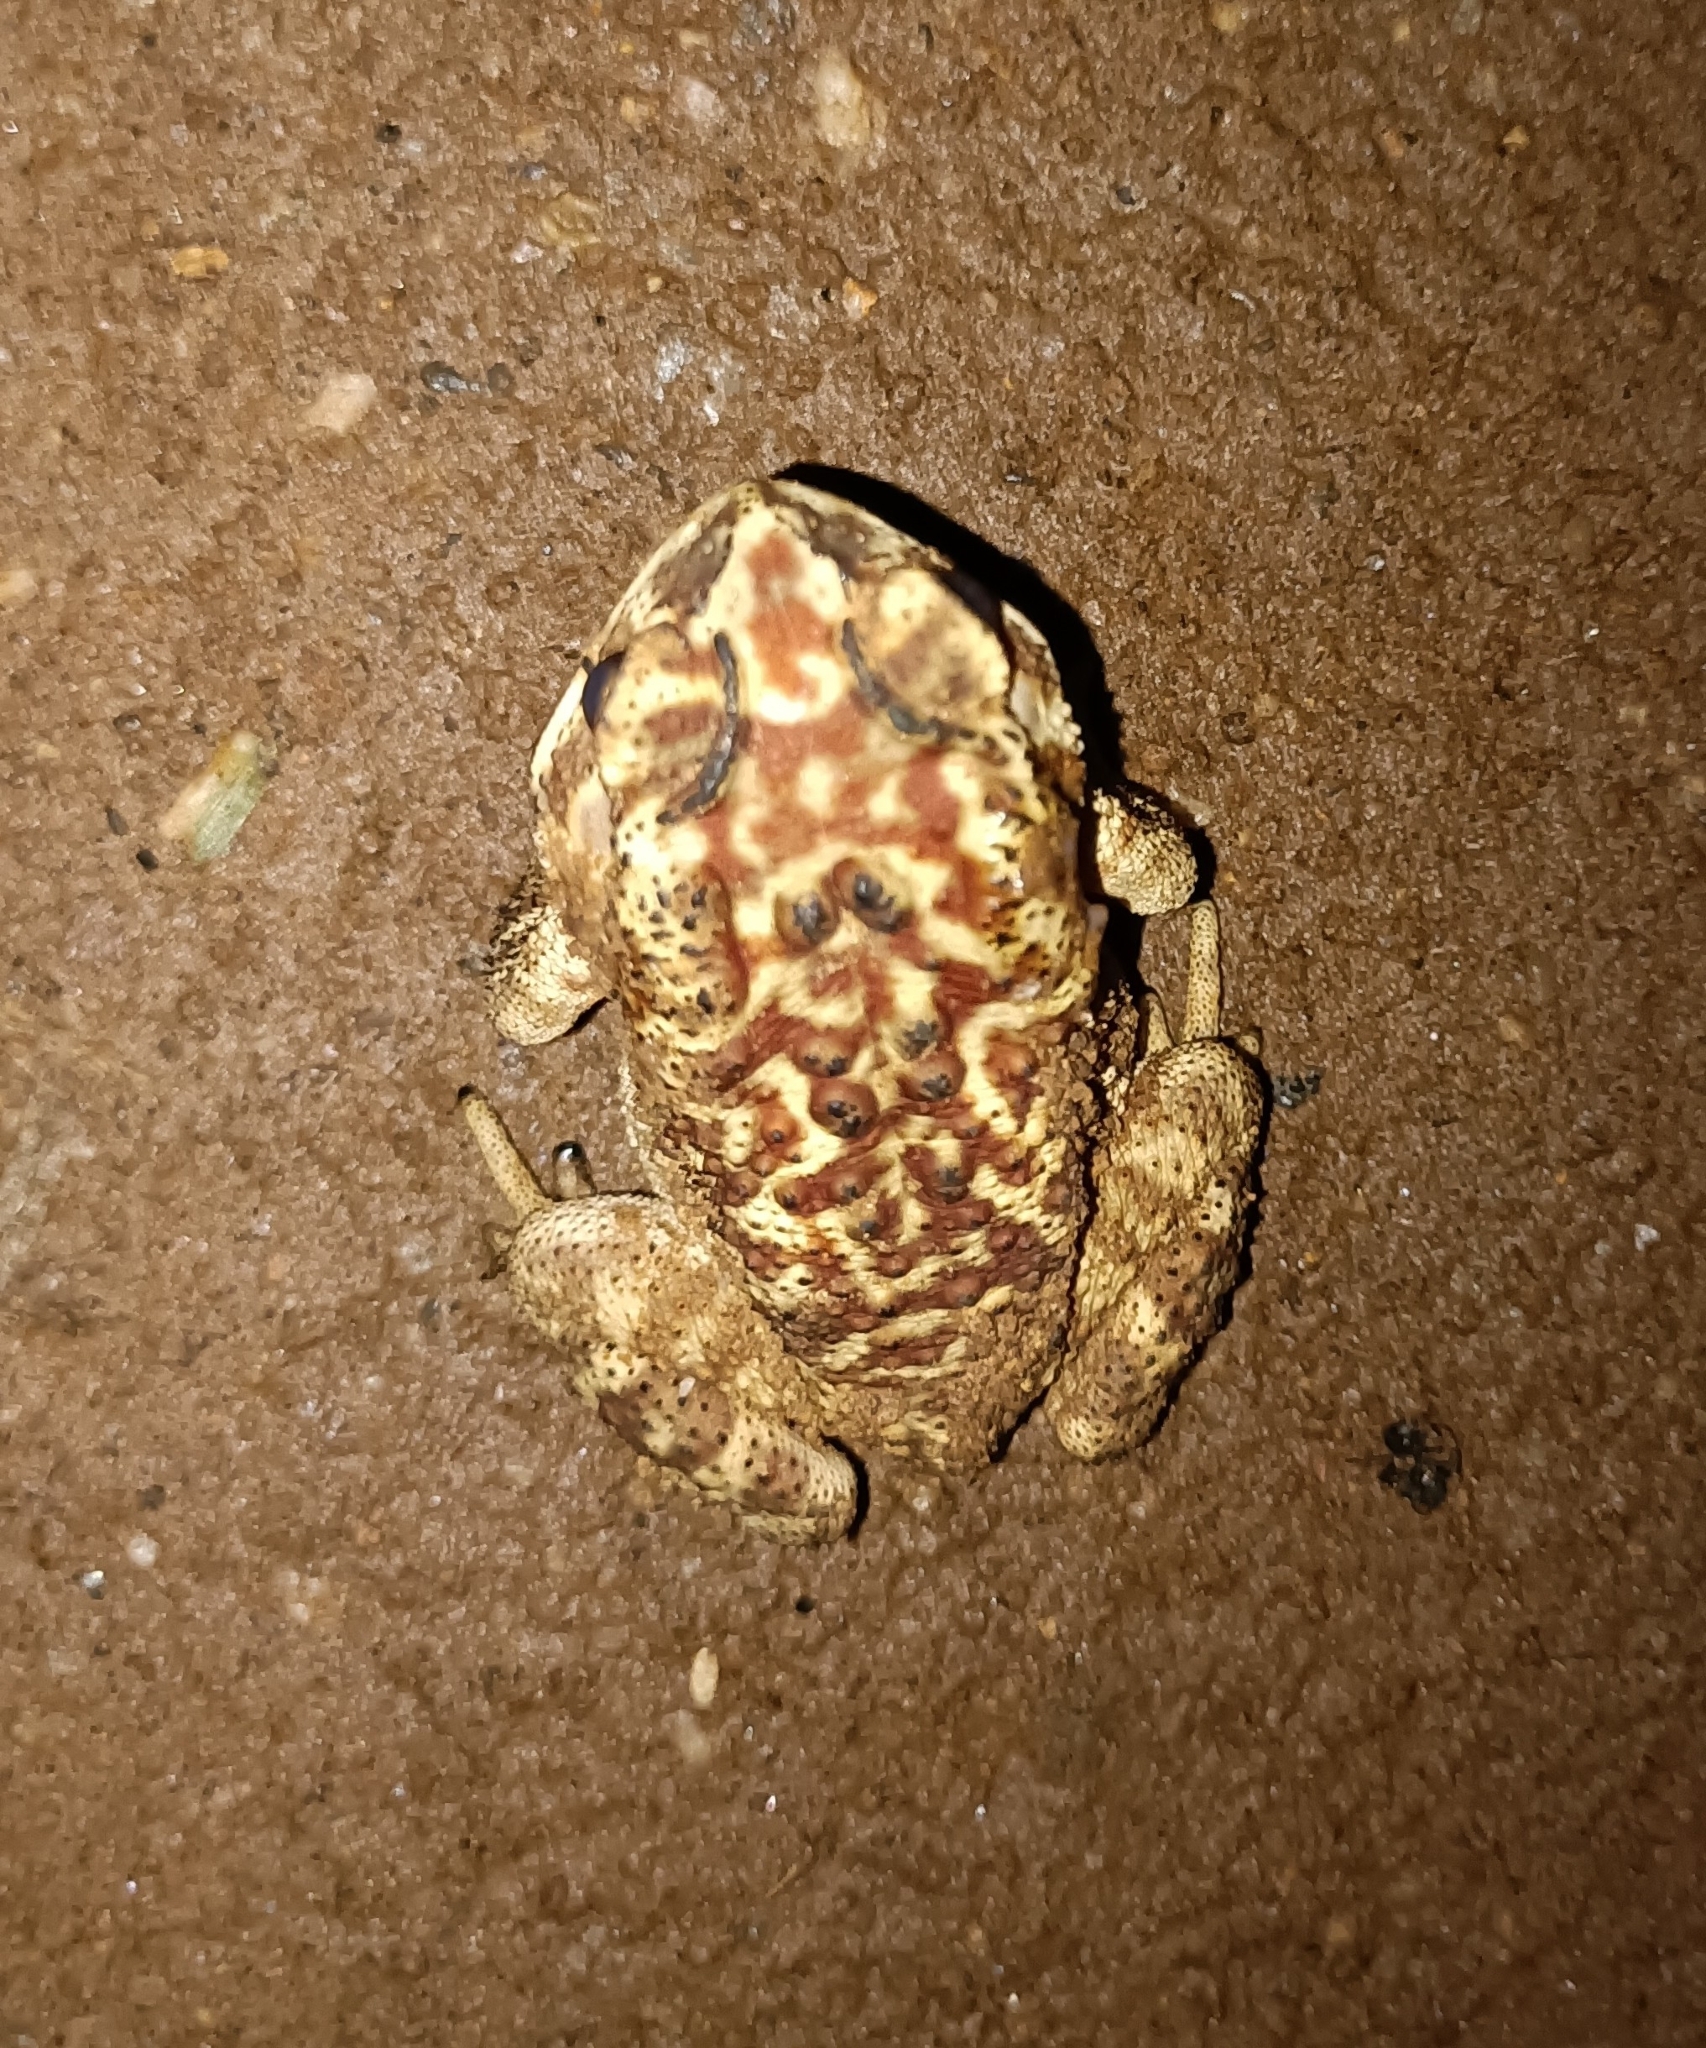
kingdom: Animalia
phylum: Chordata
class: Amphibia
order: Anura
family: Bufonidae
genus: Duttaphrynus
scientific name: Duttaphrynus melanostictus
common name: Common sunda toad
